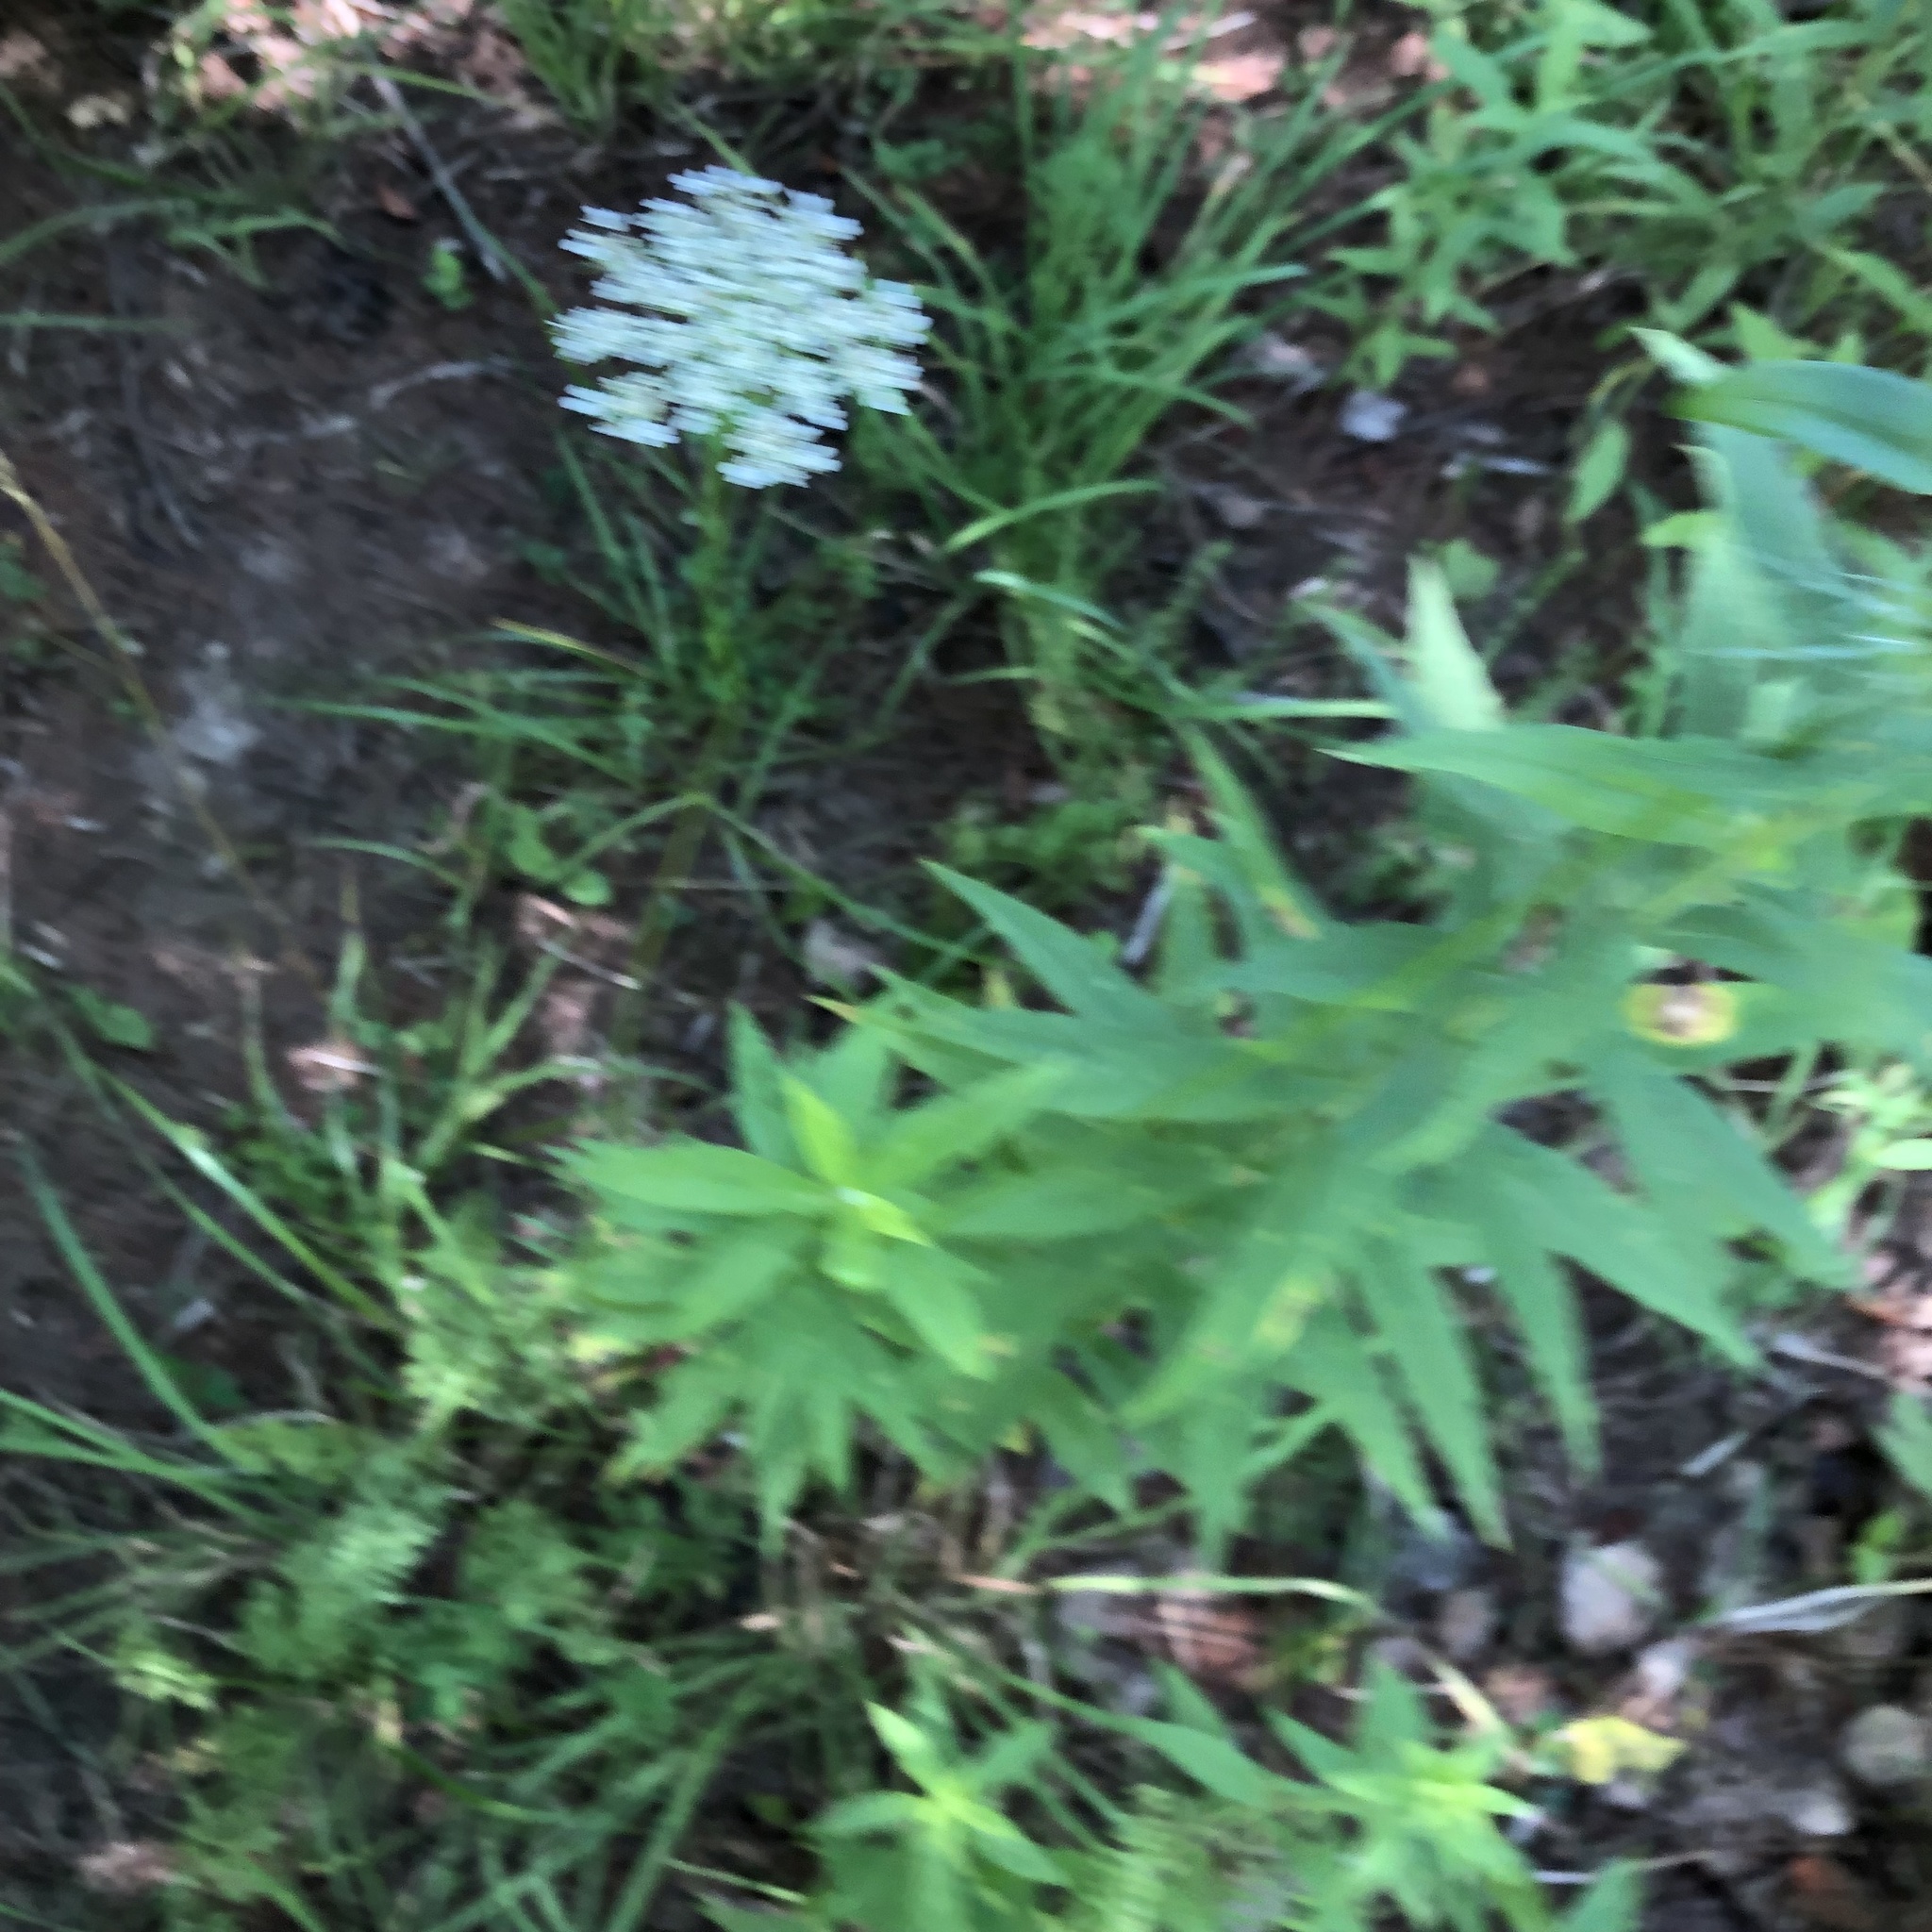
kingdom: Plantae
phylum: Tracheophyta
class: Magnoliopsida
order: Apiales
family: Apiaceae
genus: Daucus
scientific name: Daucus carota
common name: Wild carrot
